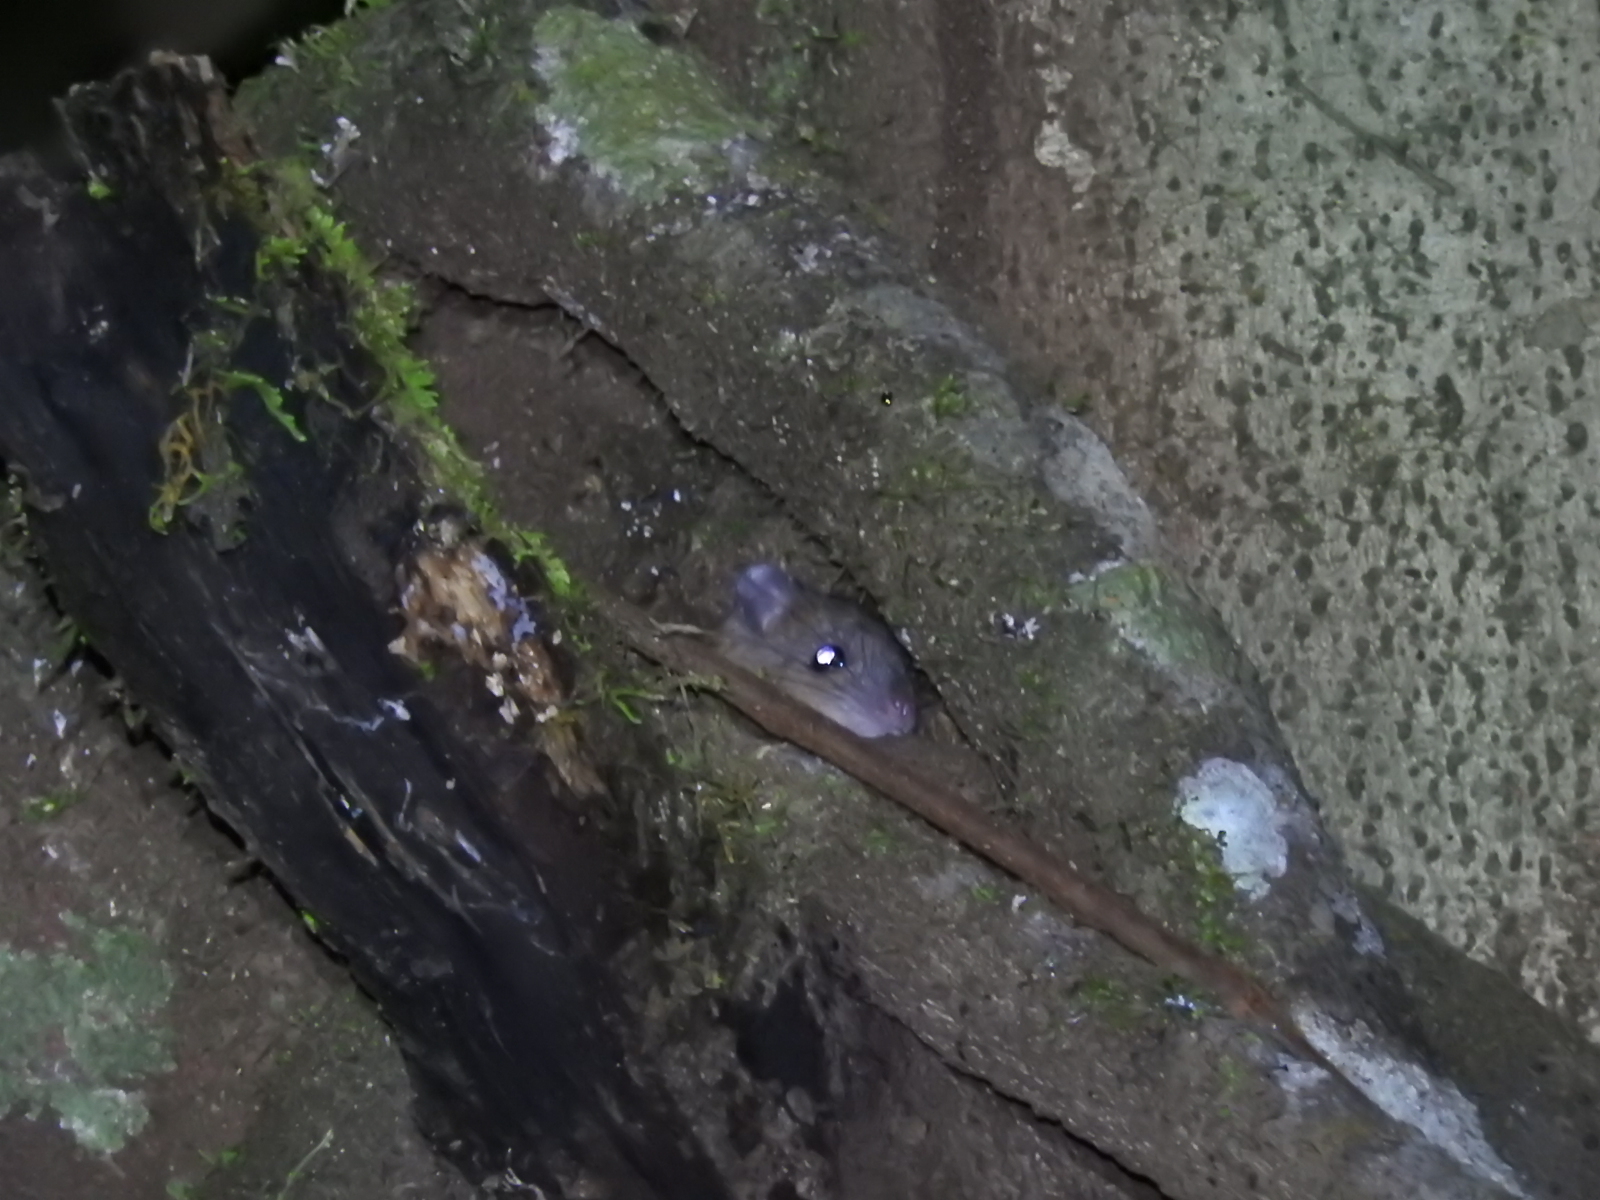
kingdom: Animalia
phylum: Chordata
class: Mammalia
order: Rodentia
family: Muridae
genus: Melomys
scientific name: Melomys cervinipes
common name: Fawn-footed melomys
